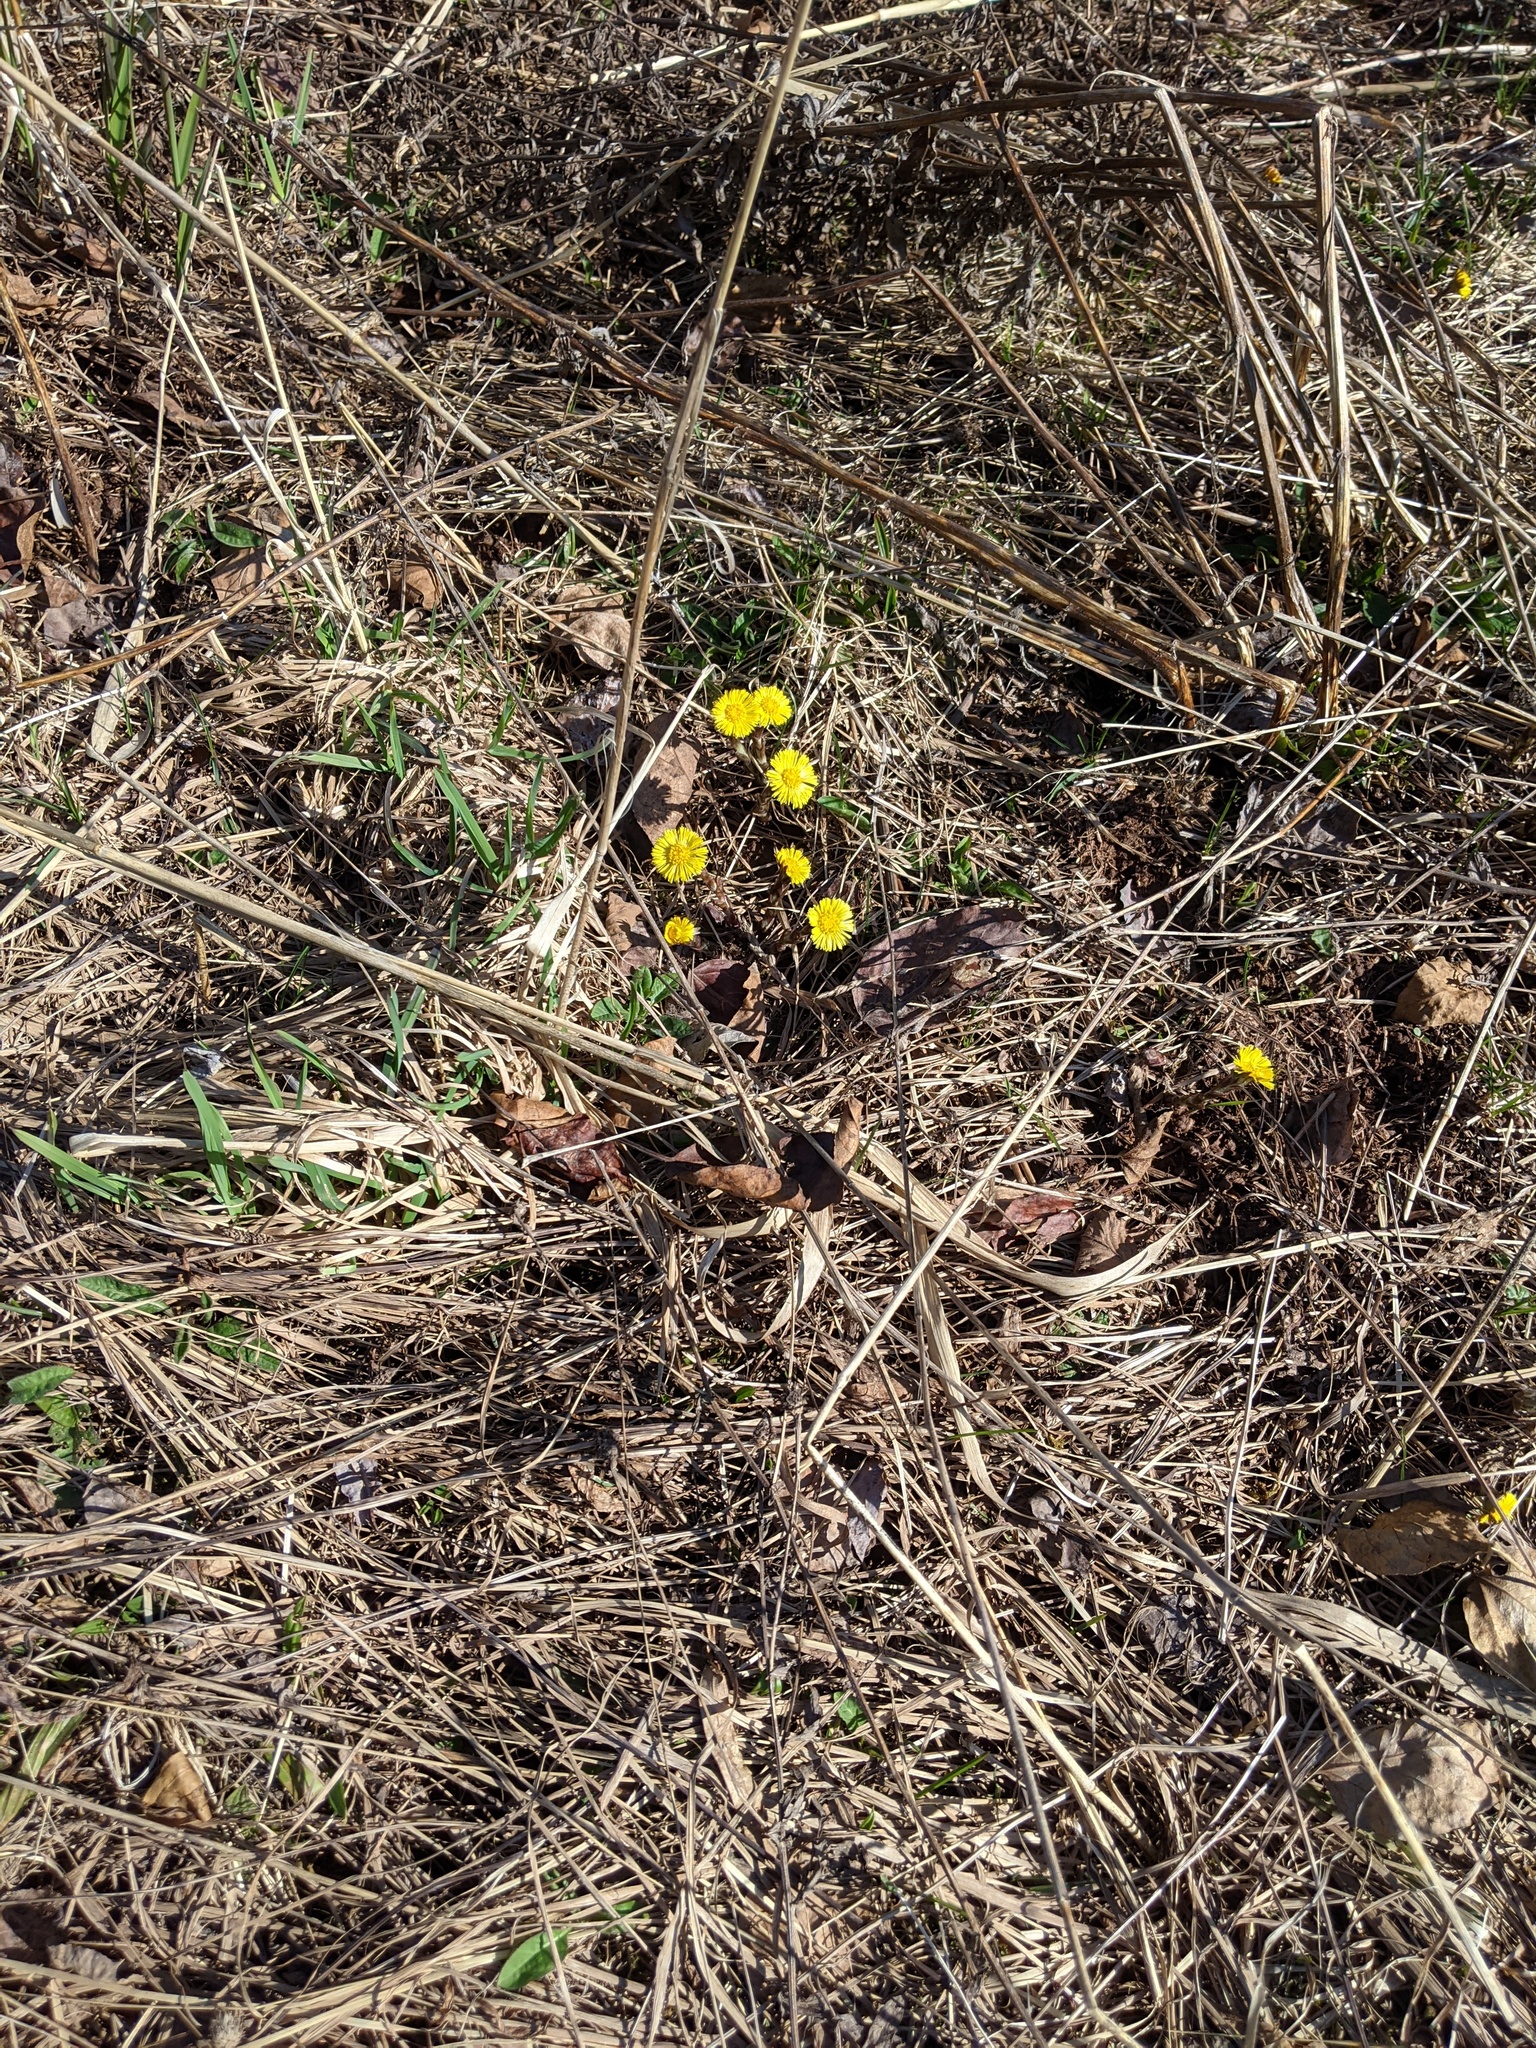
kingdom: Plantae
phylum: Tracheophyta
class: Magnoliopsida
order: Asterales
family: Asteraceae
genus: Tussilago
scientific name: Tussilago farfara
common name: Coltsfoot
